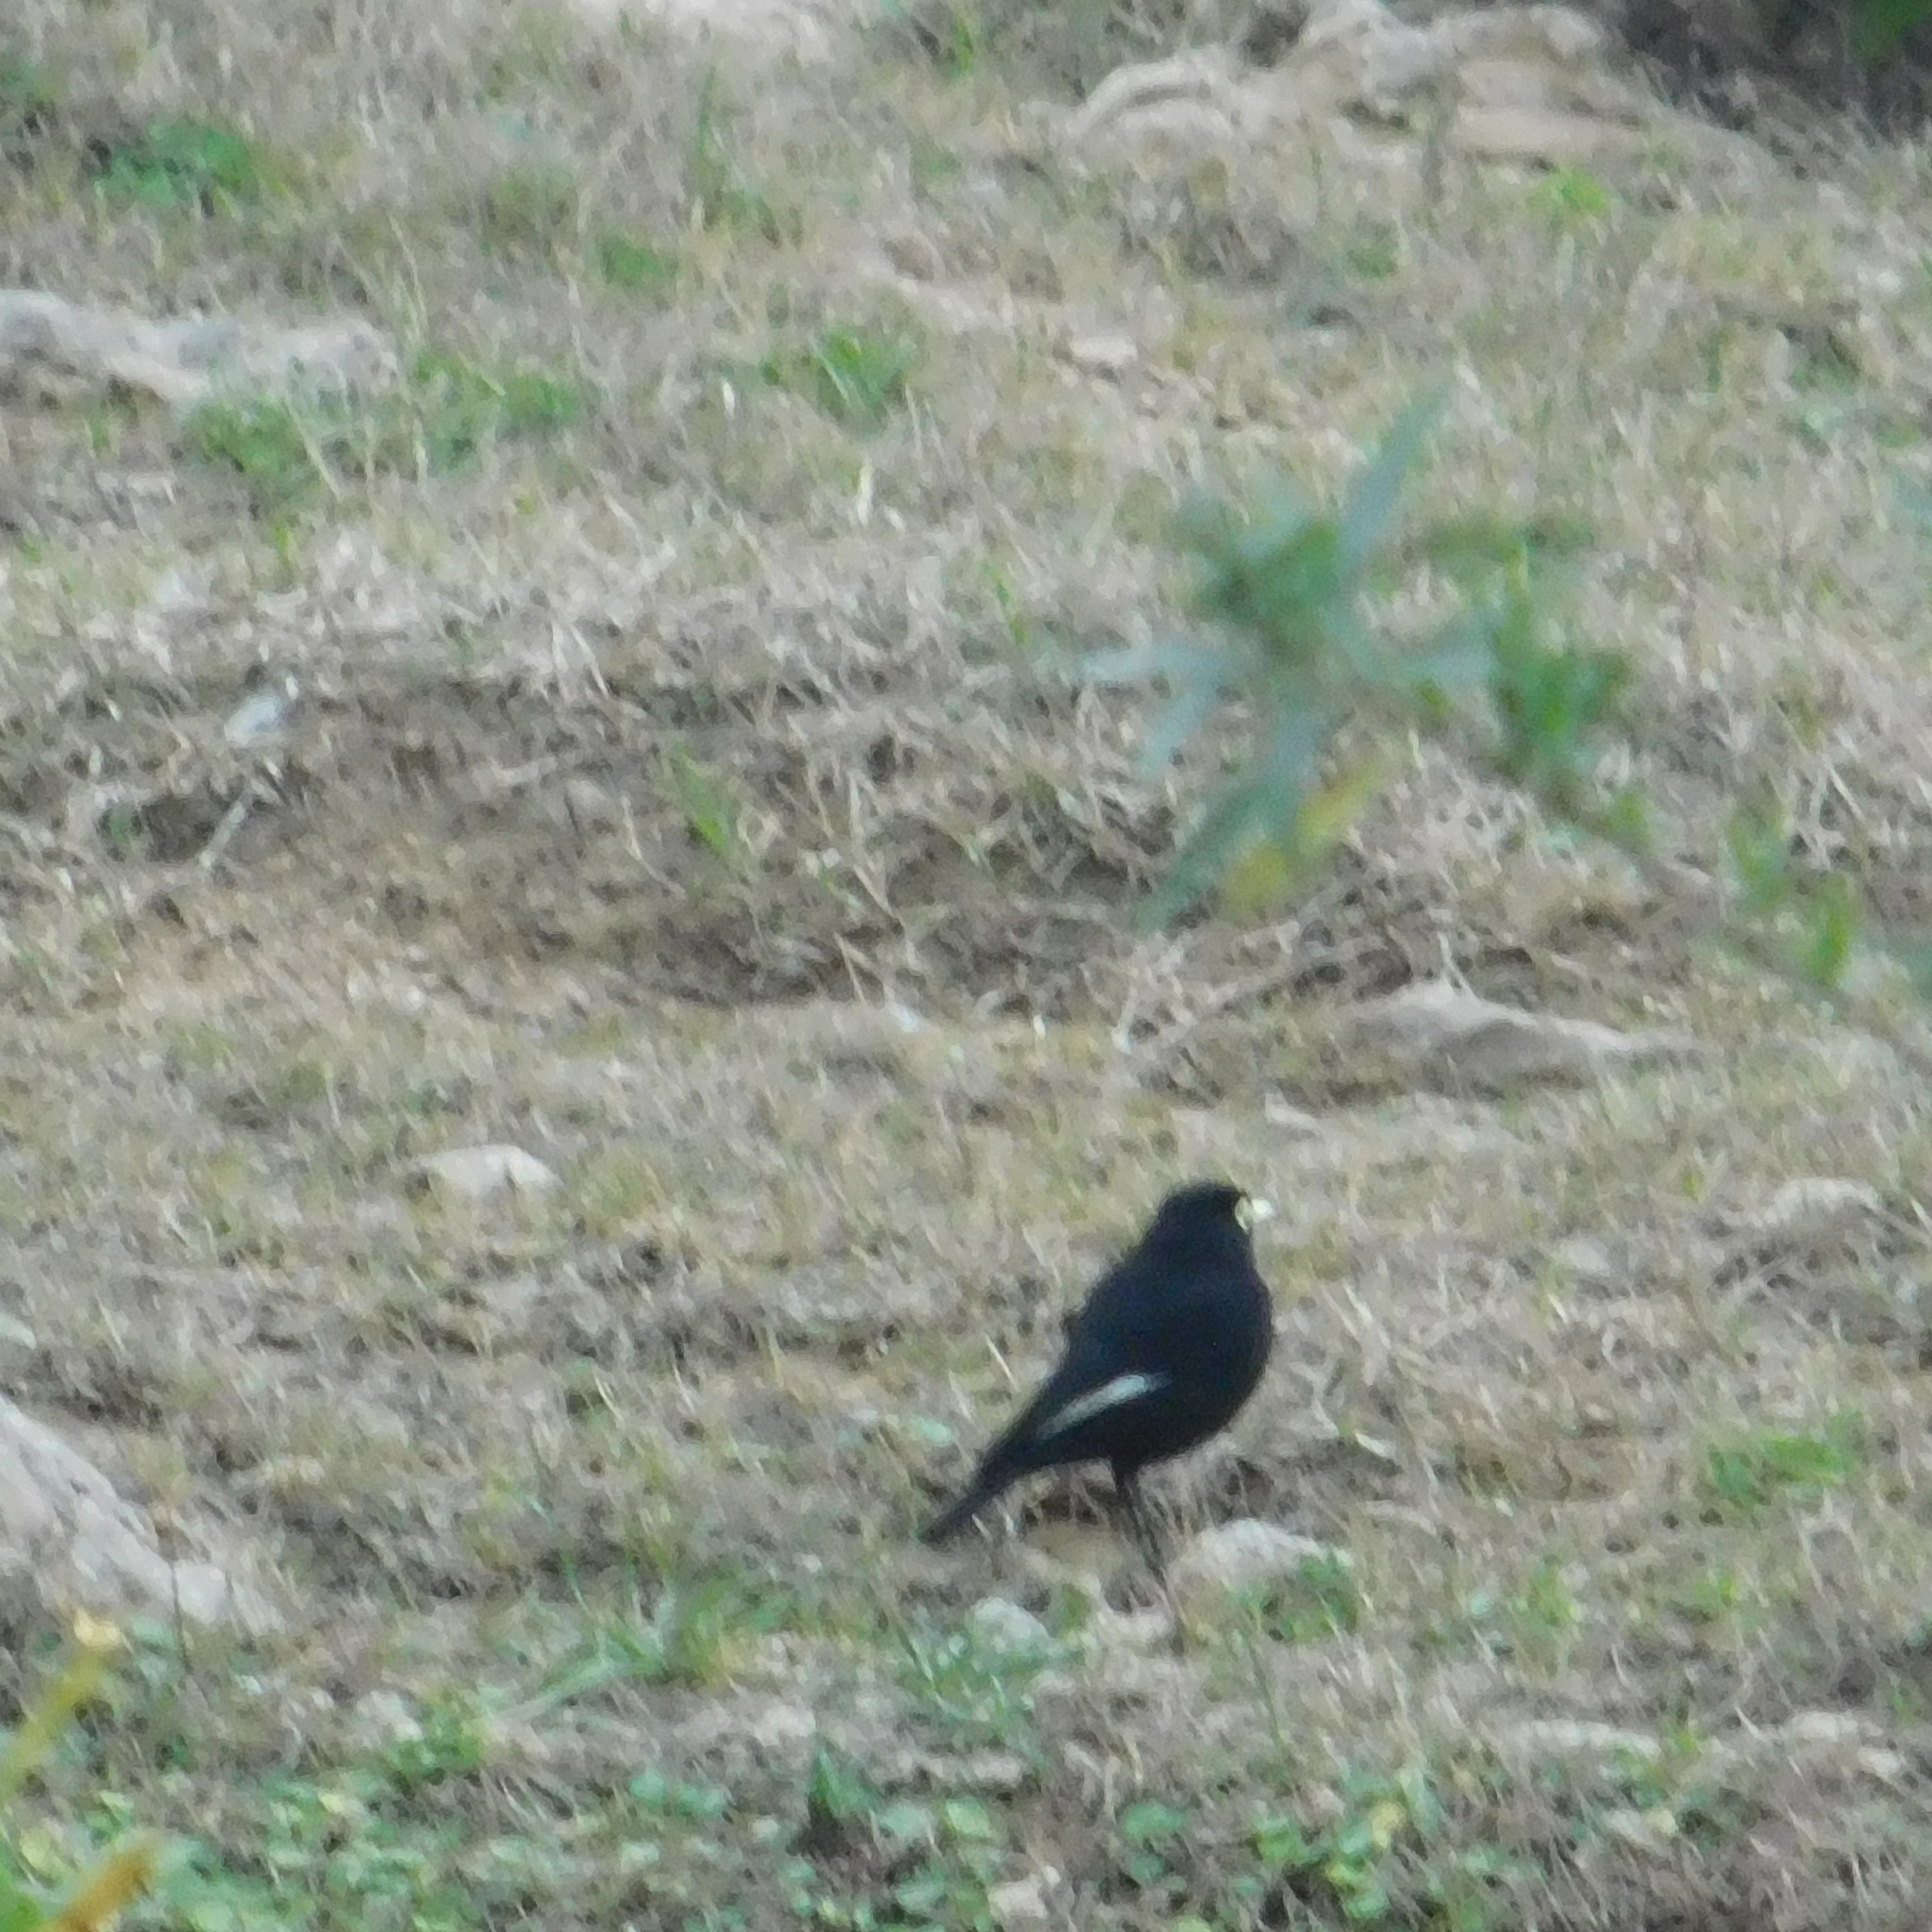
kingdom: Animalia
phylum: Chordata
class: Aves
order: Passeriformes
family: Tyrannidae
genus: Hymenops
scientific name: Hymenops perspicillatus
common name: Spectacled tyrant
